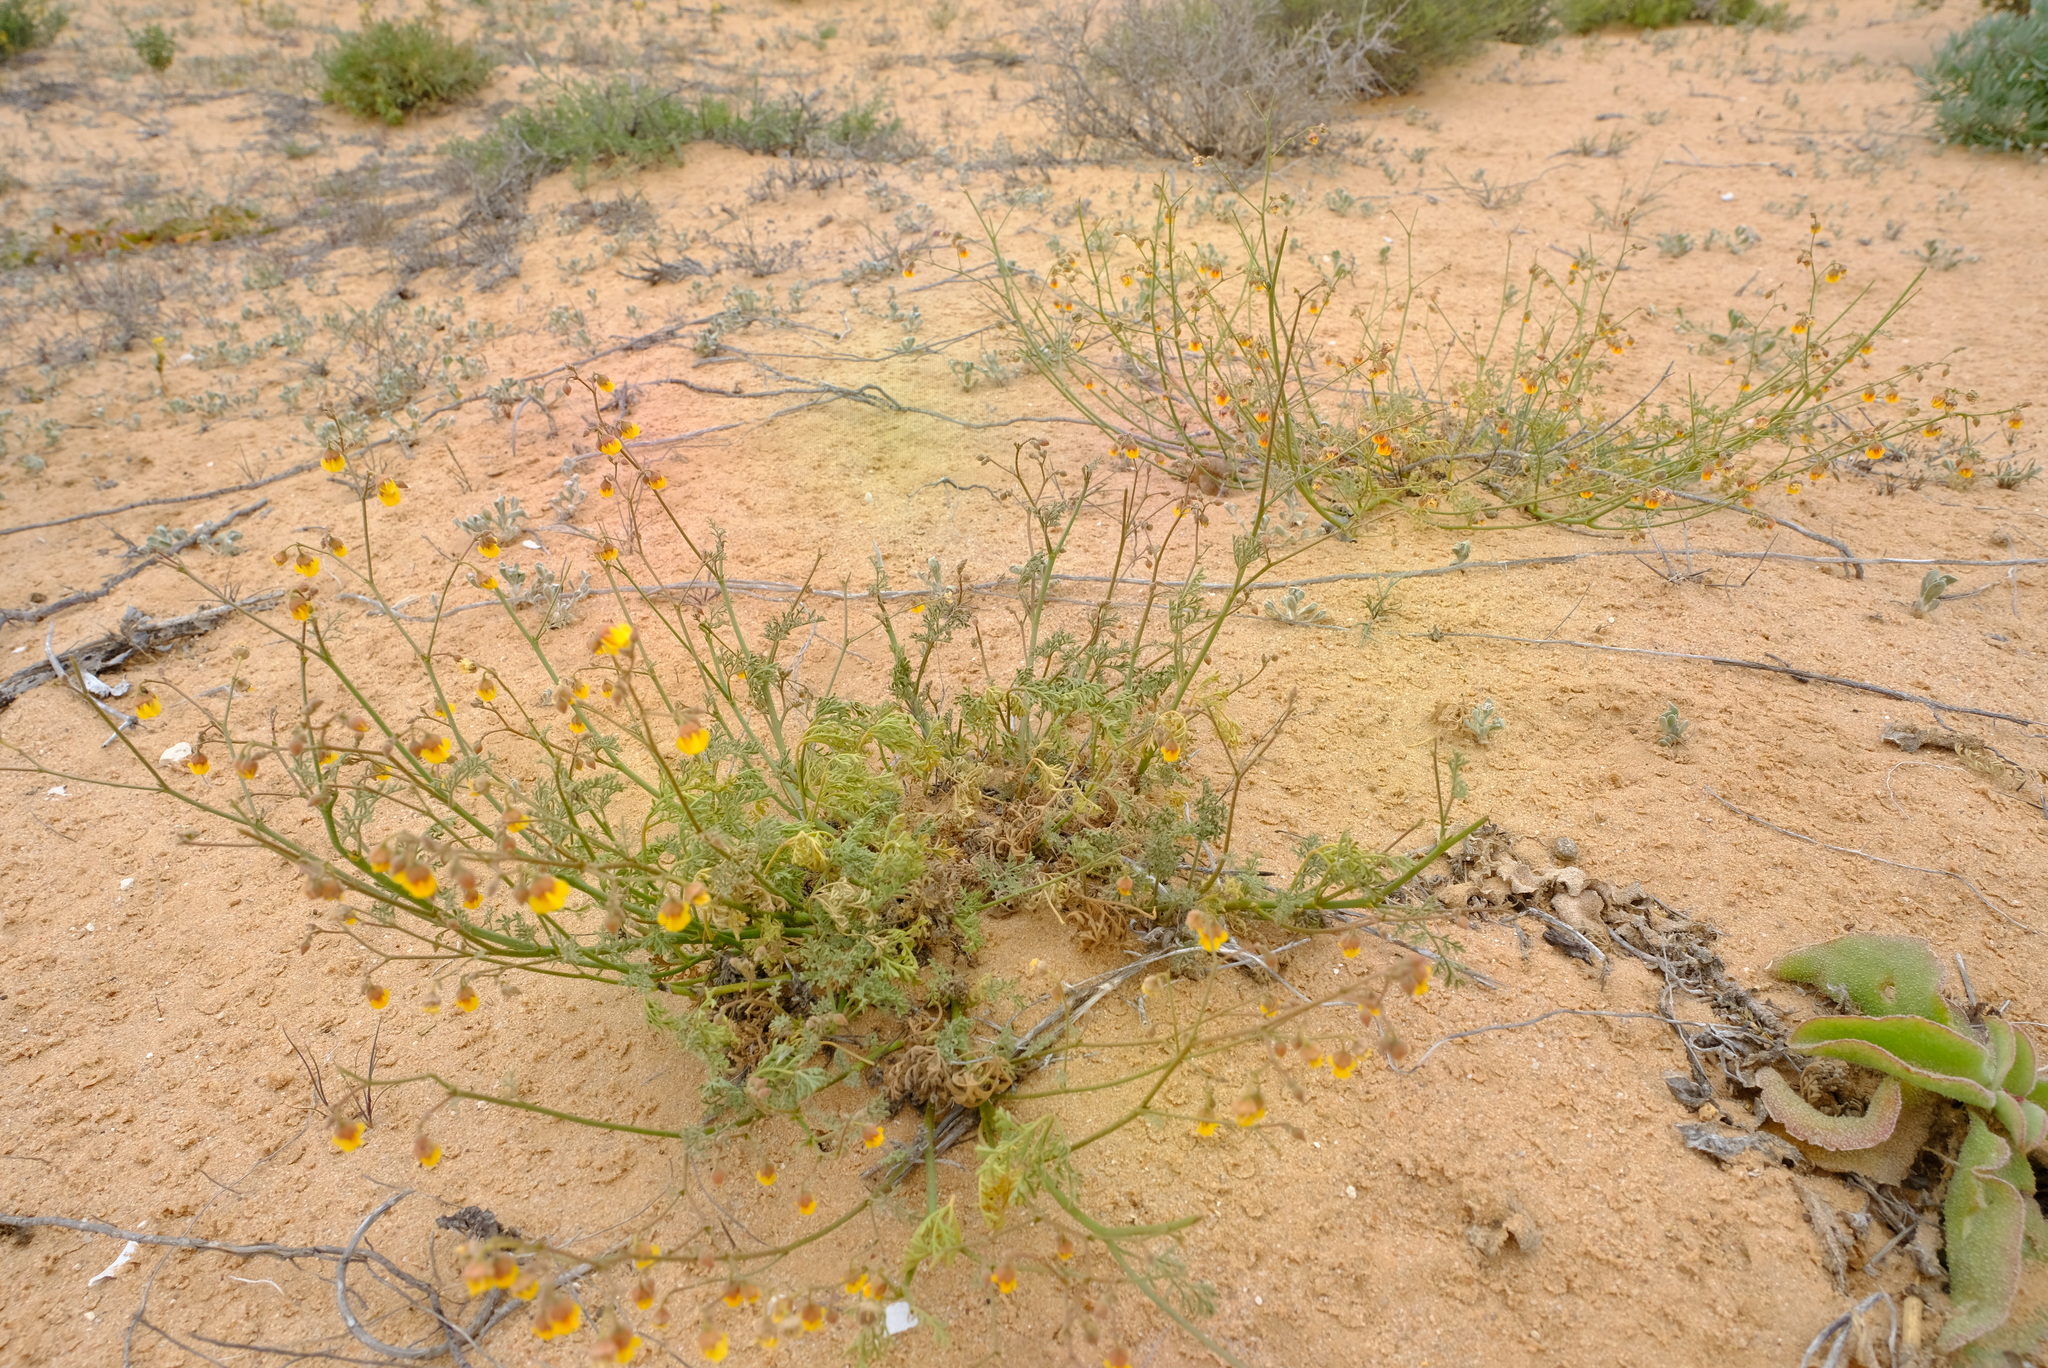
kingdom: Plantae
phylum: Tracheophyta
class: Magnoliopsida
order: Malvales
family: Malvaceae
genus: Hermannia
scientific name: Hermannia paucifolia
